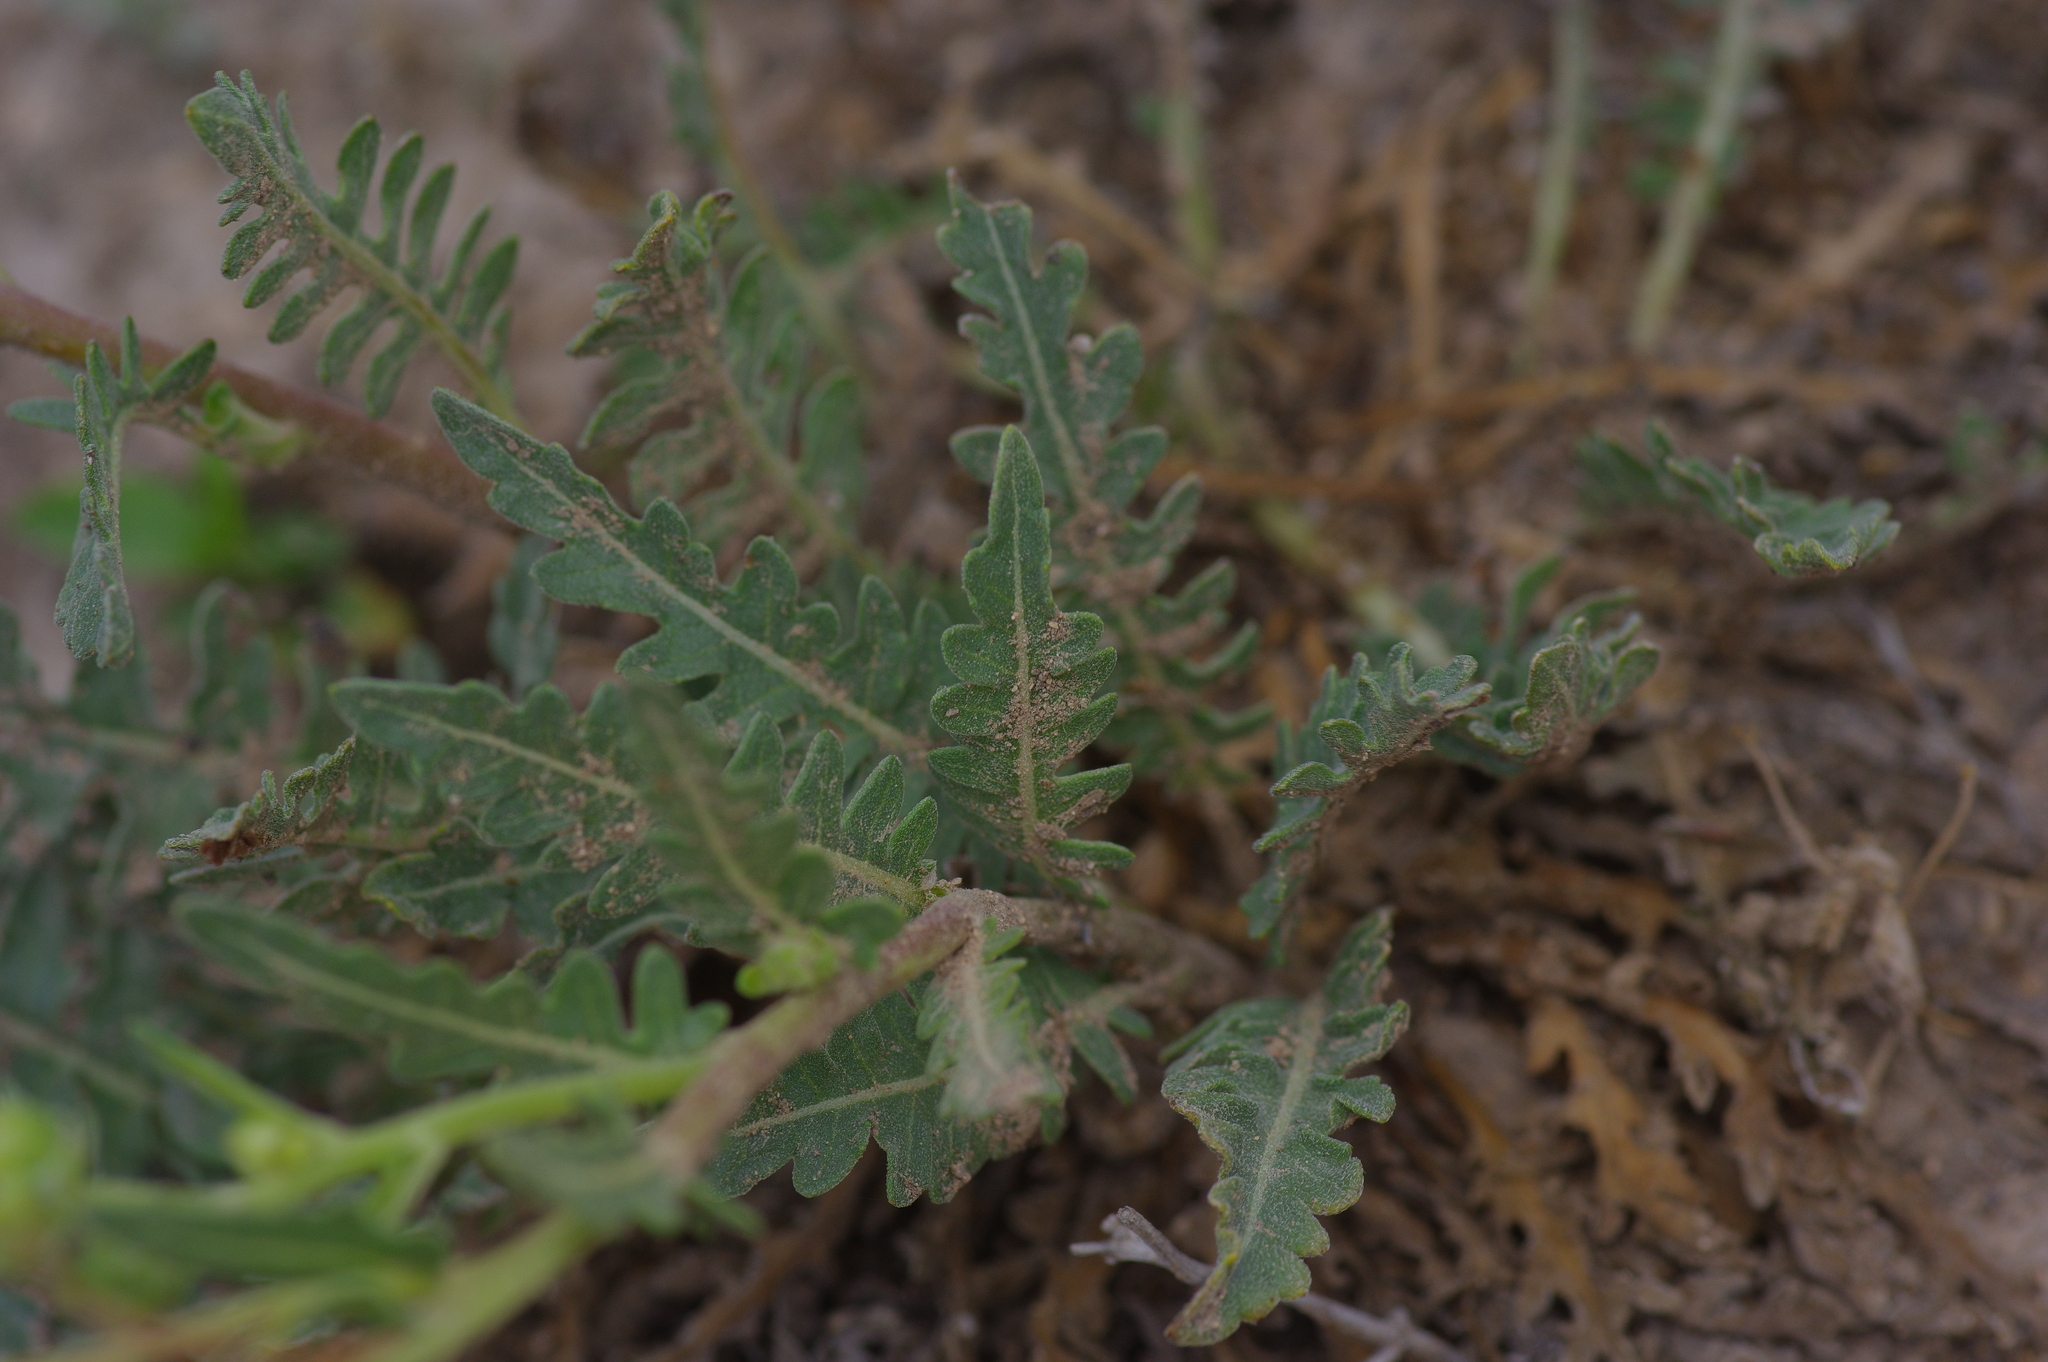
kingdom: Plantae
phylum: Tracheophyta
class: Magnoliopsida
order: Asterales
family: Asteraceae
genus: Engelmannia
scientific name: Engelmannia peristenia
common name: Engelmann's daisy
